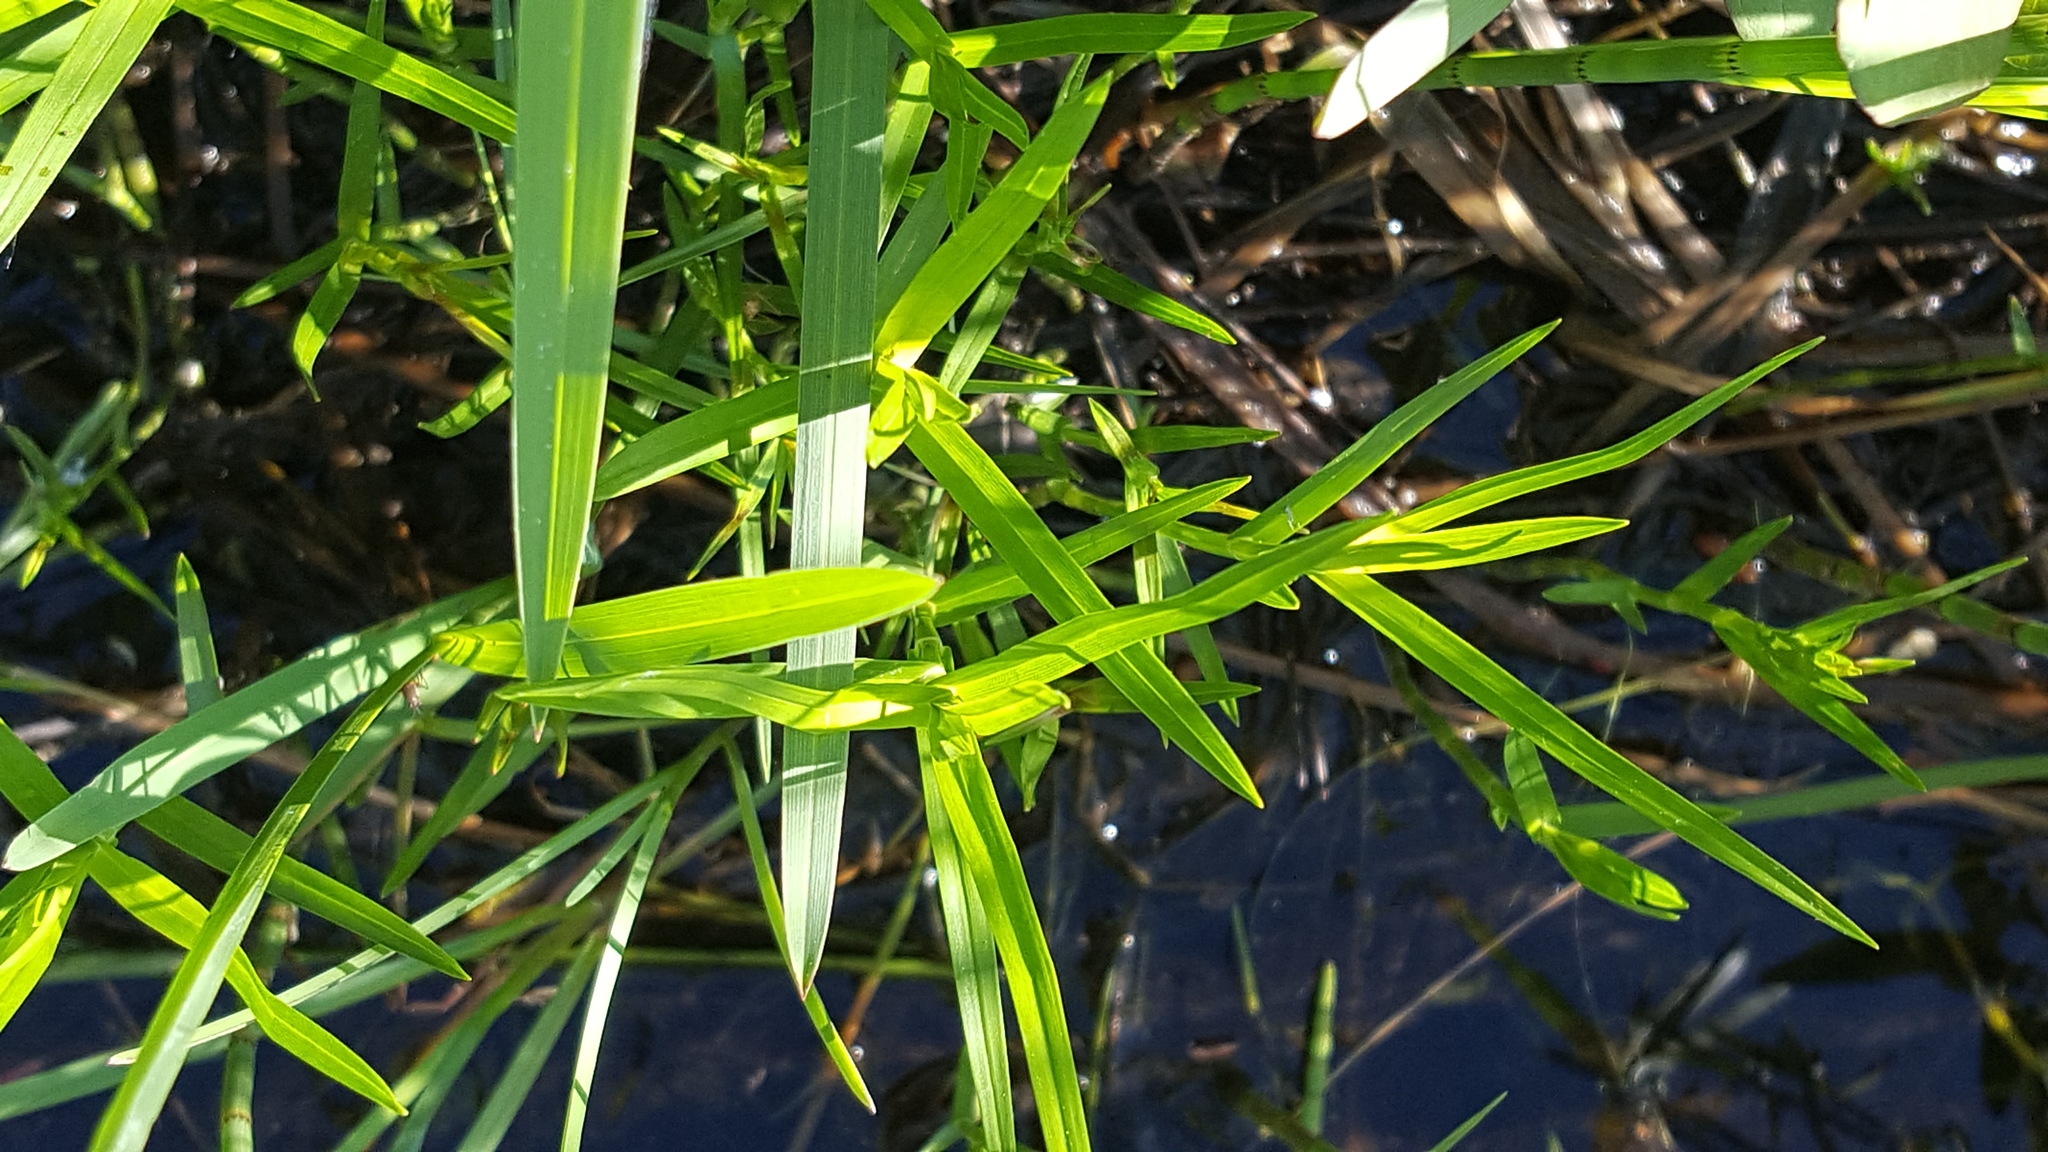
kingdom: Plantae
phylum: Tracheophyta
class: Liliopsida
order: Poales
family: Cyperaceae
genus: Dulichium
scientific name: Dulichium arundinaceum
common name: Three-way sedge
